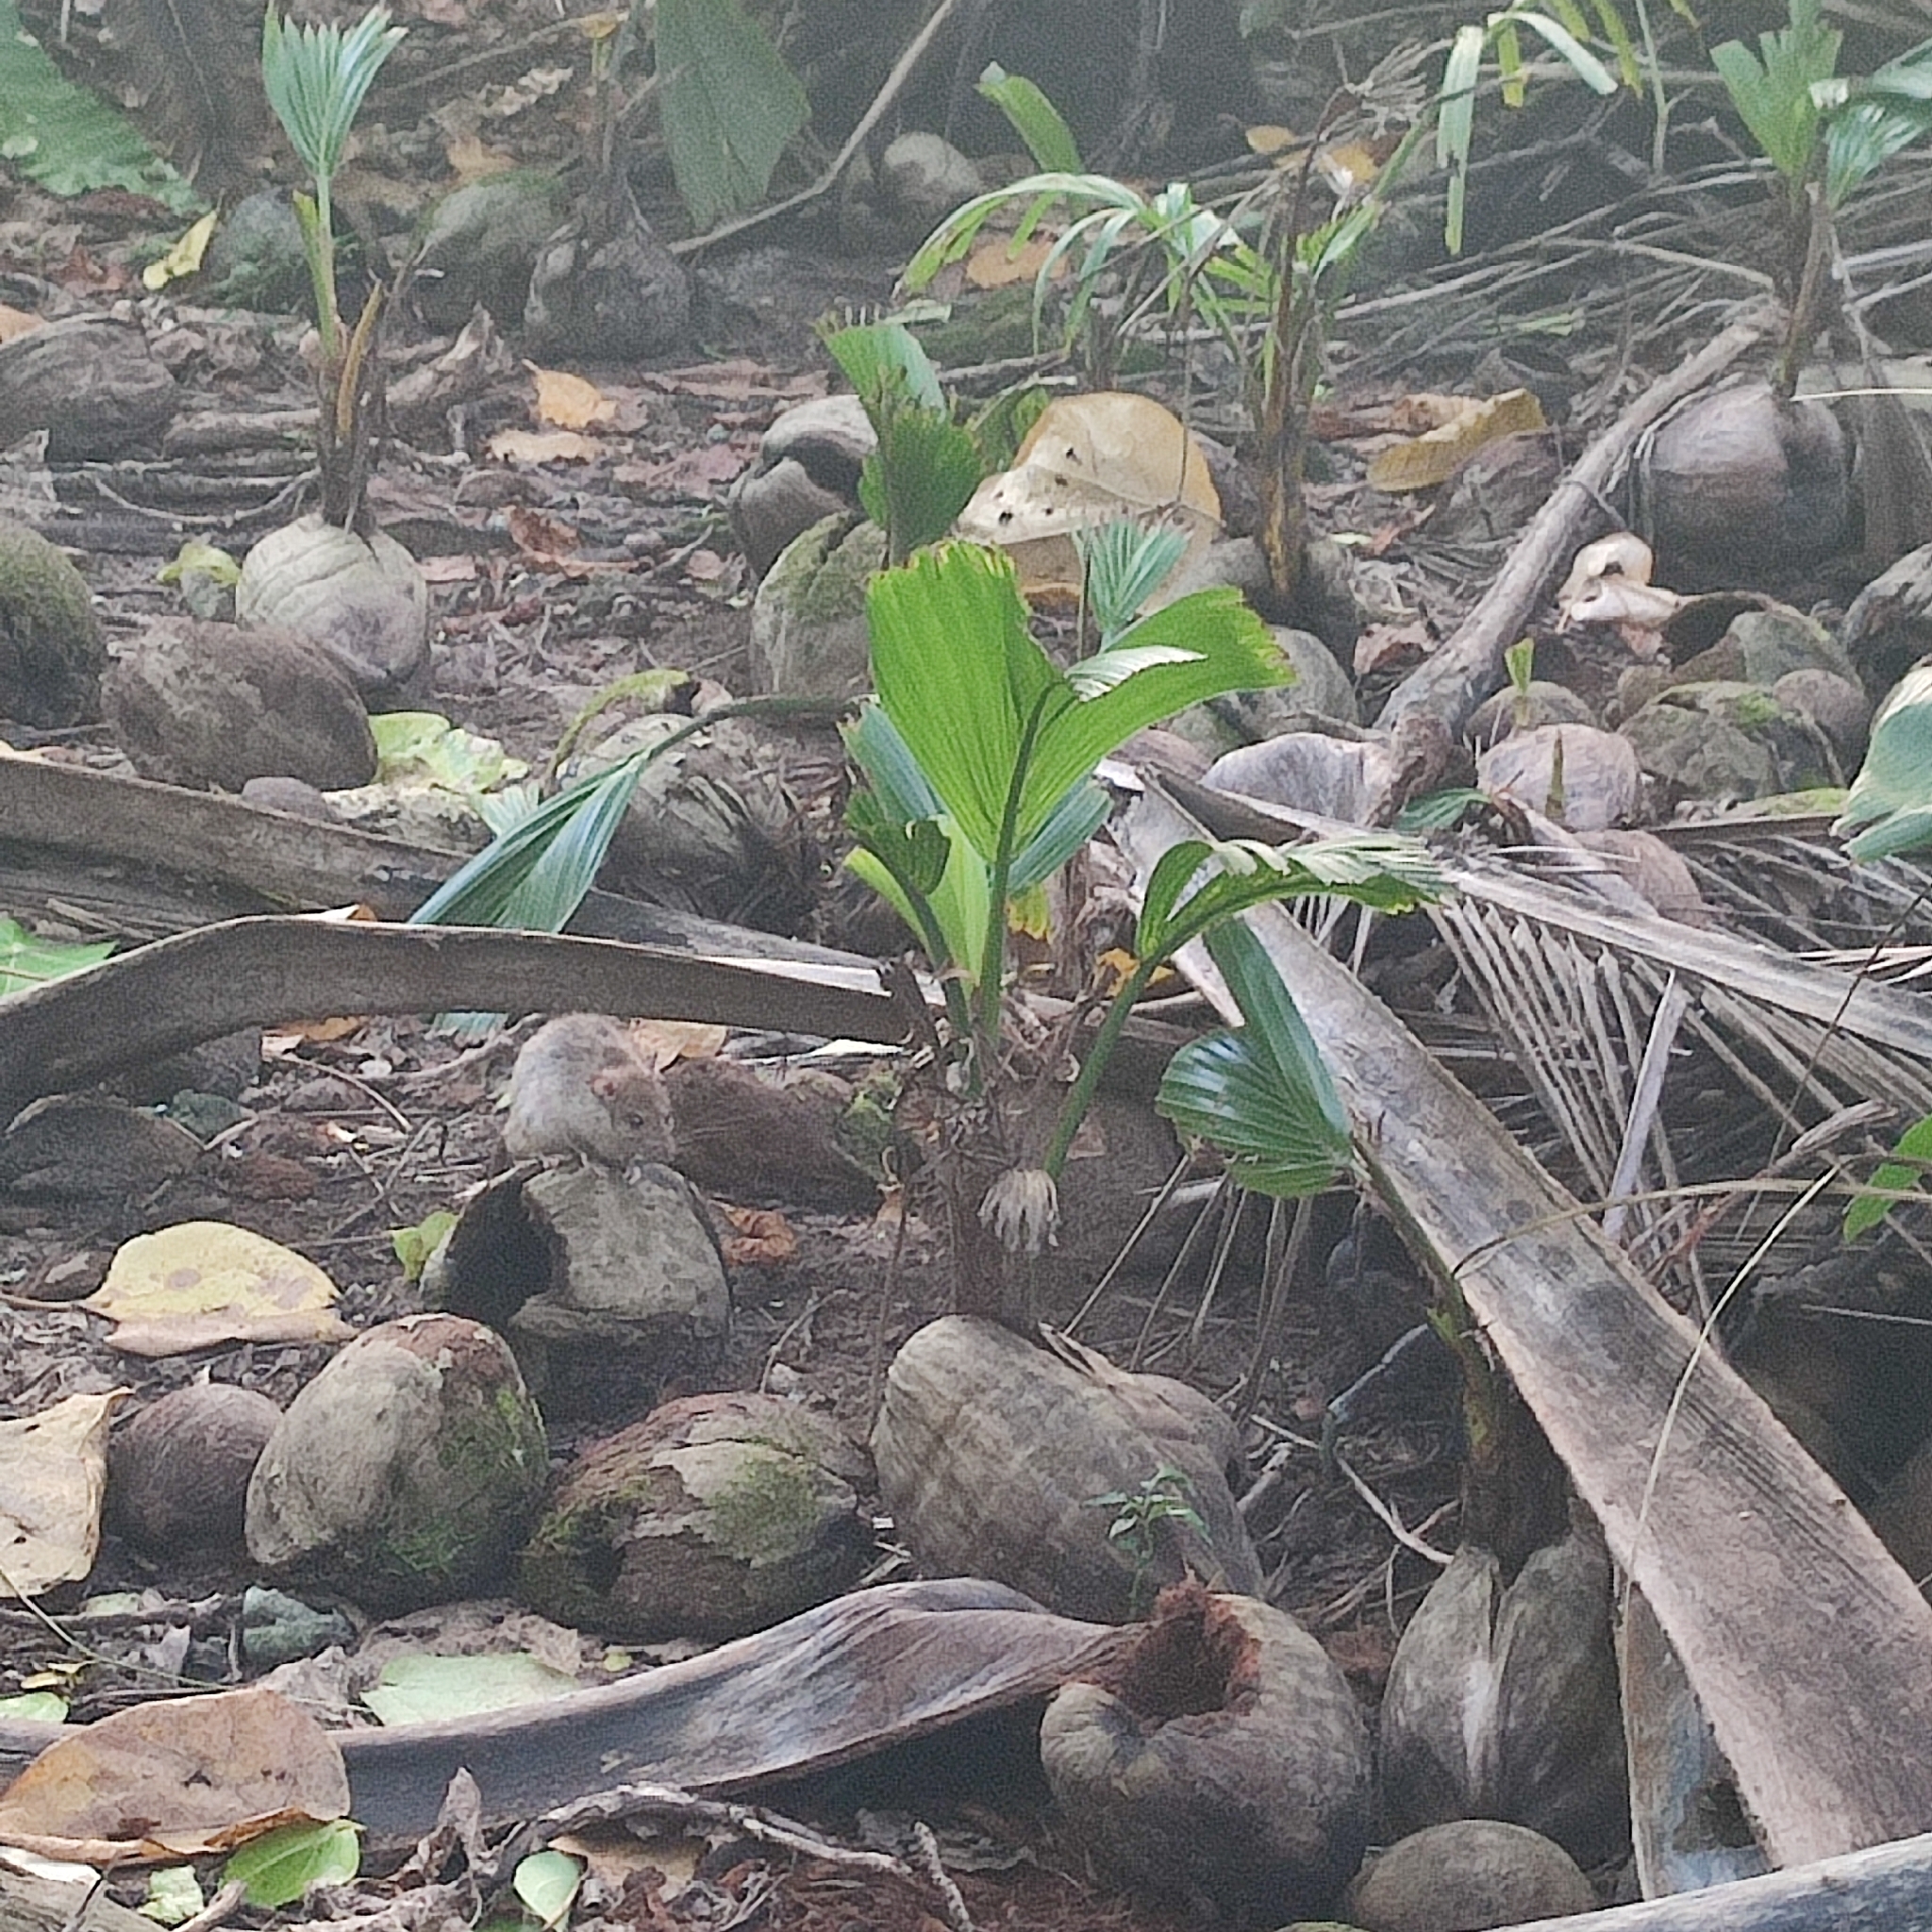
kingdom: Animalia
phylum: Chordata
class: Mammalia
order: Rodentia
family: Muridae
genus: Rattus
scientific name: Rattus rattus
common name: Black rat
